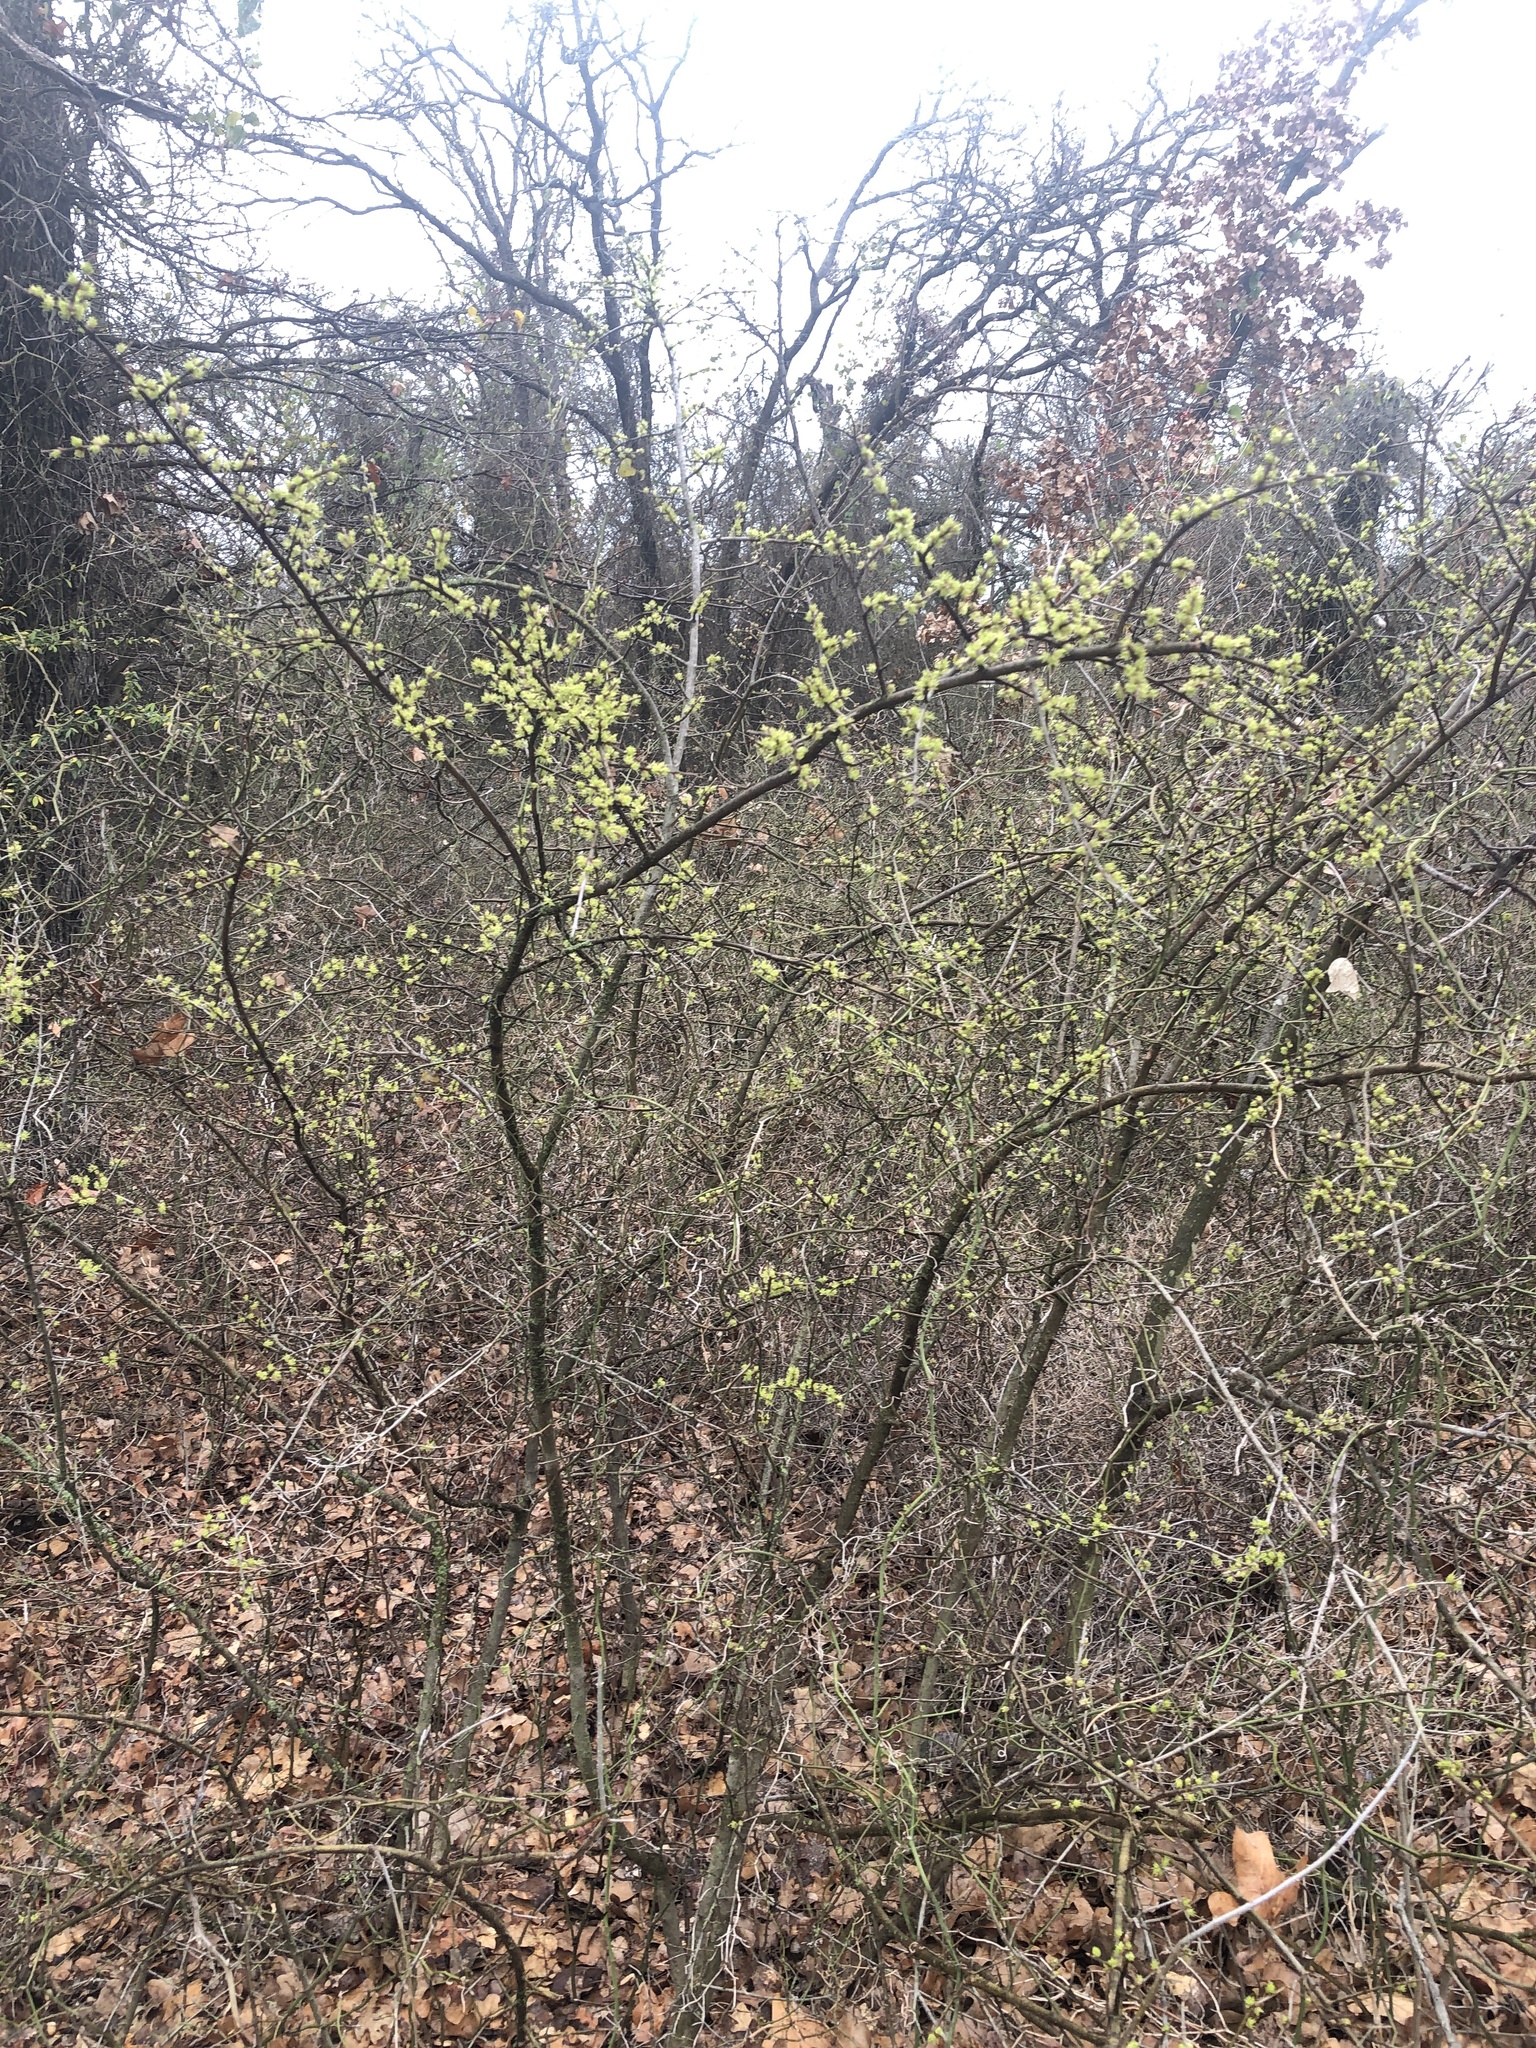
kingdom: Plantae
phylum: Tracheophyta
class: Magnoliopsida
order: Lamiales
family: Oleaceae
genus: Forestiera
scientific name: Forestiera pubescens
